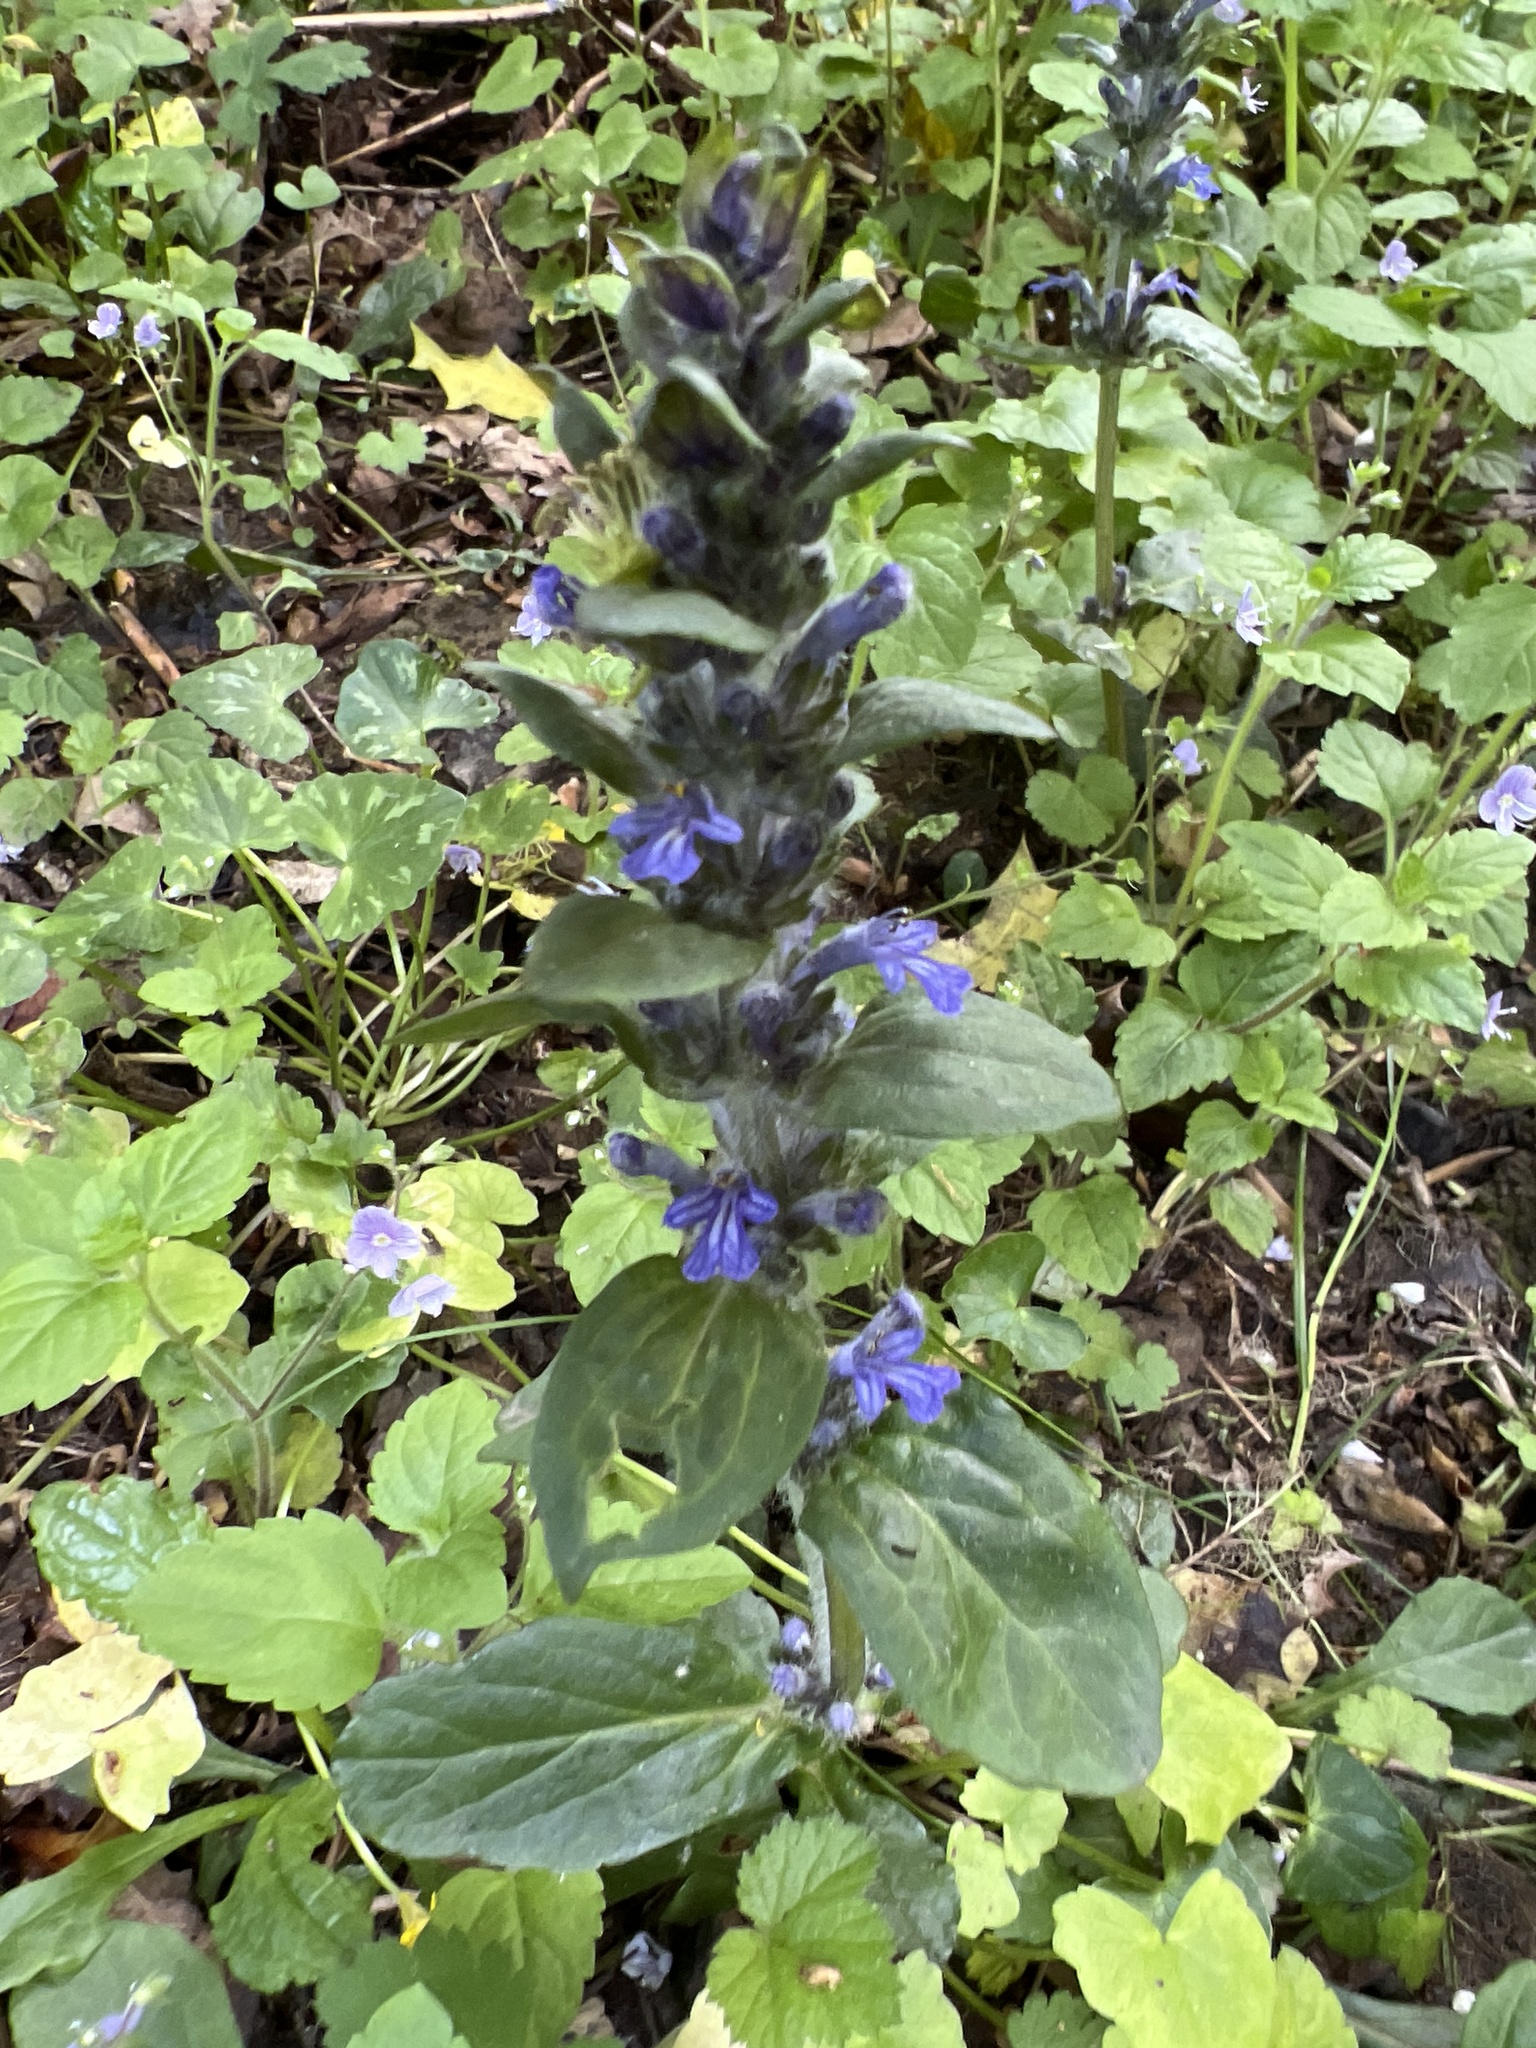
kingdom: Plantae
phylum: Tracheophyta
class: Magnoliopsida
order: Lamiales
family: Lamiaceae
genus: Ajuga
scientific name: Ajuga reptans
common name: Bugle
